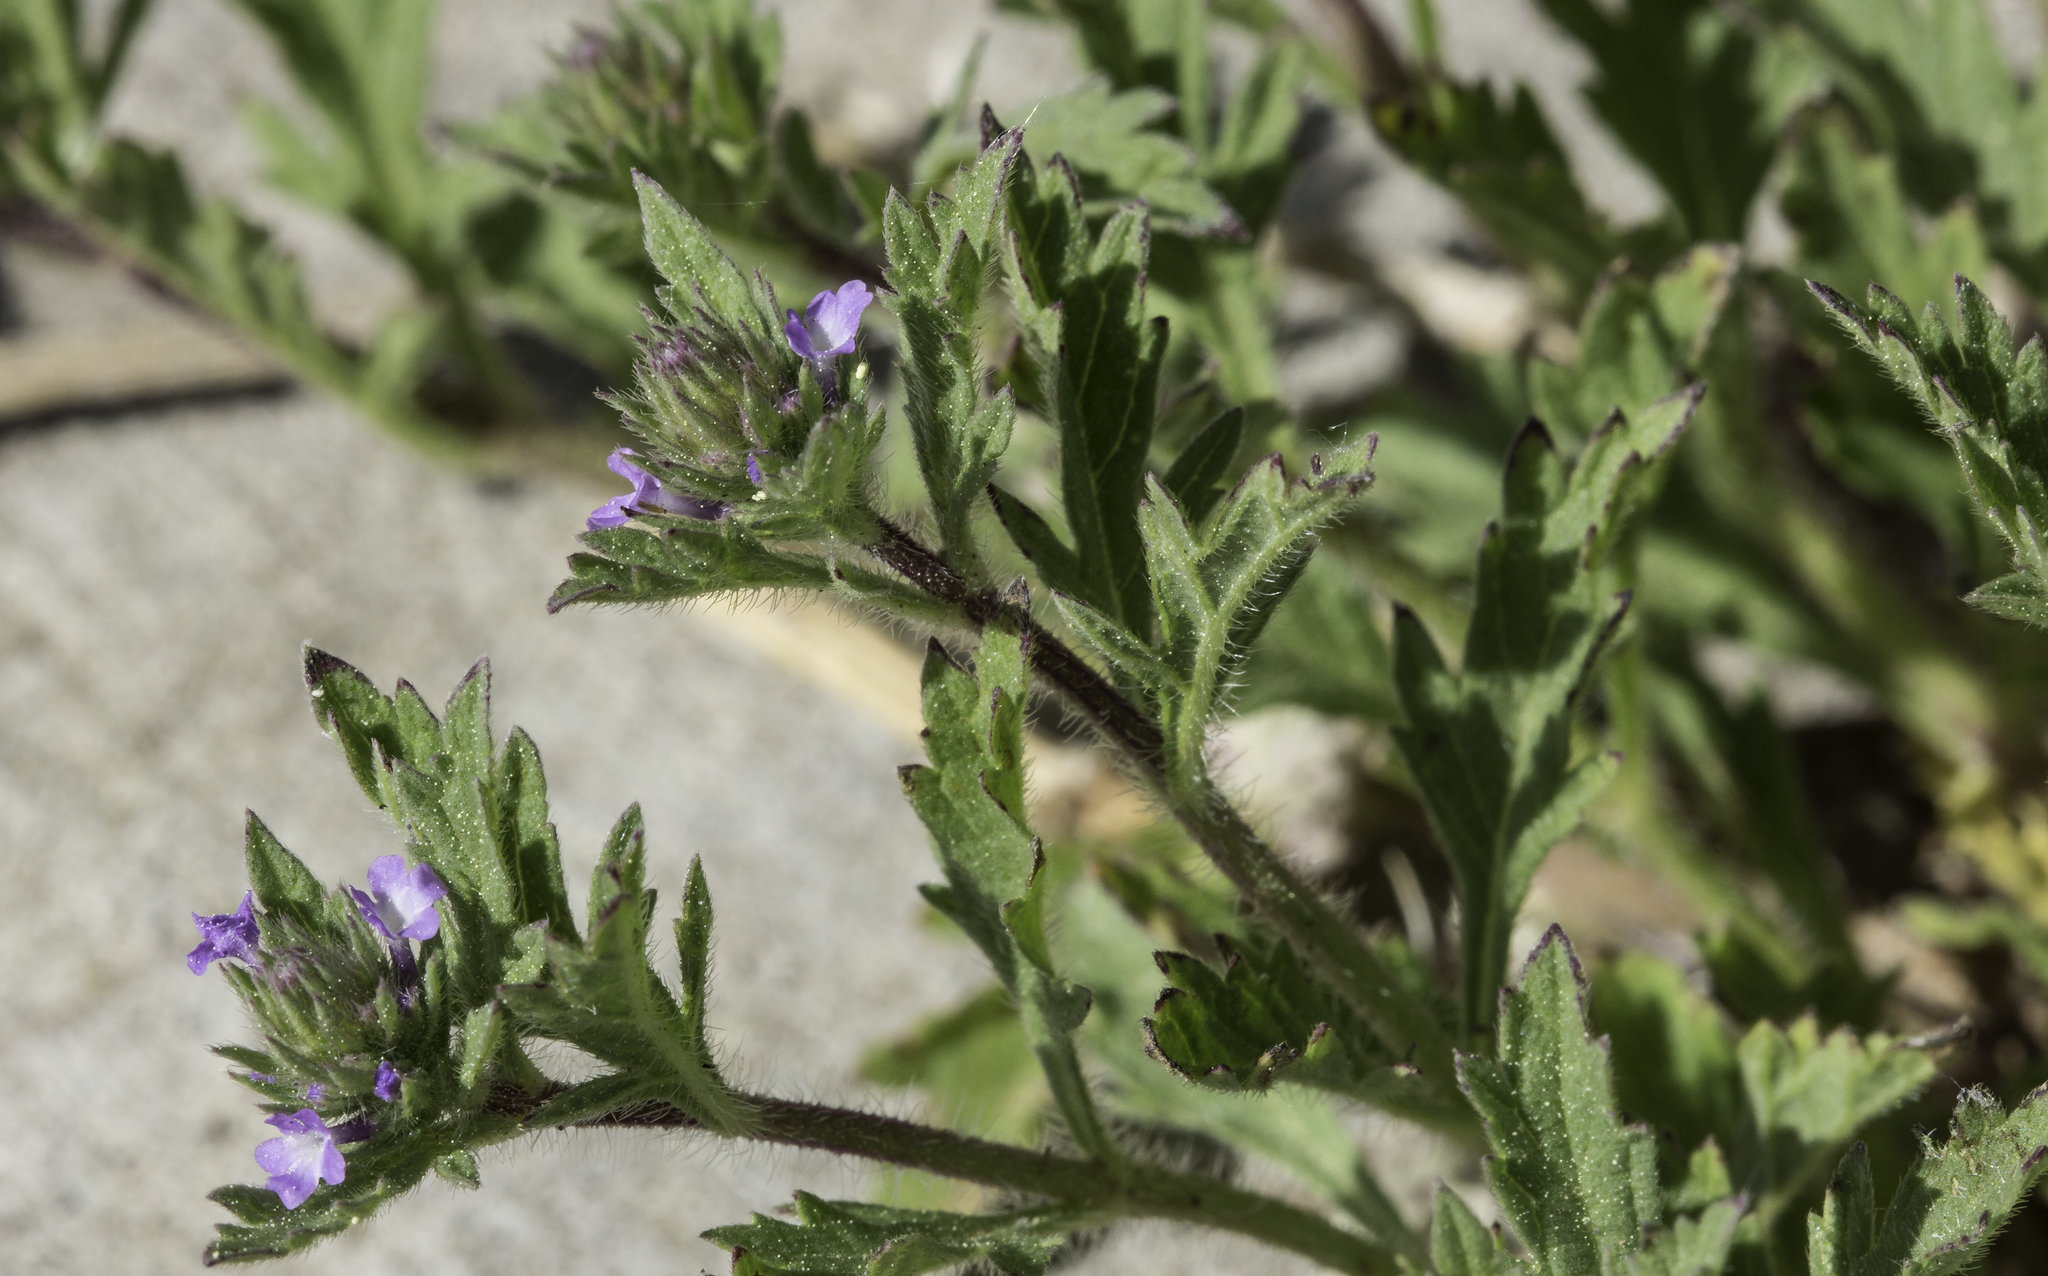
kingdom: Plantae
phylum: Tracheophyta
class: Magnoliopsida
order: Lamiales
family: Verbenaceae
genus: Verbena
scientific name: Verbena bracteata
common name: Bracted vervain
